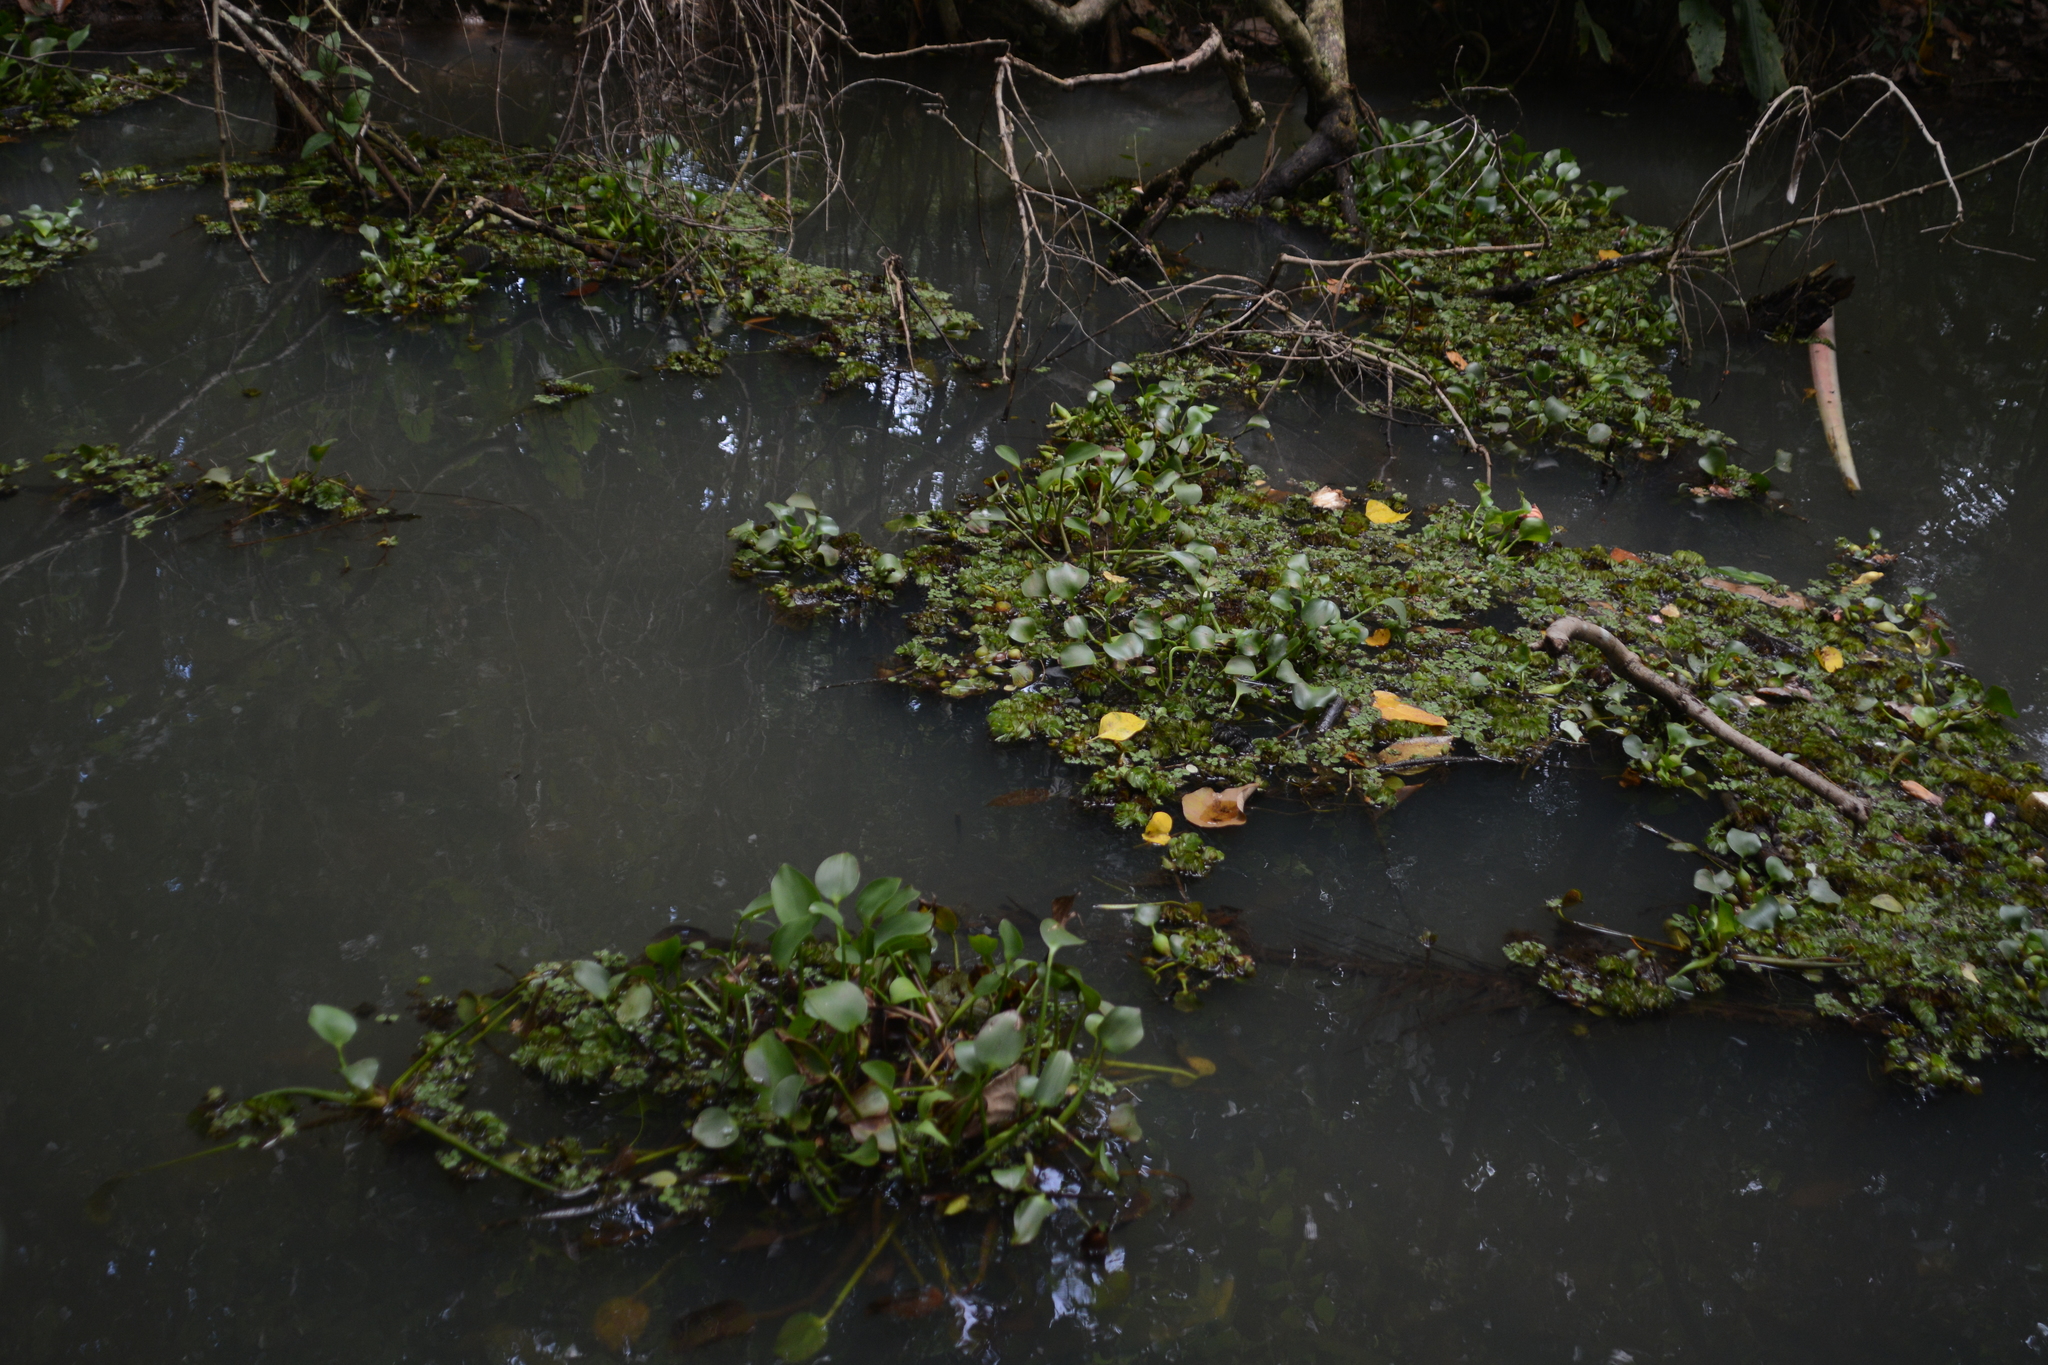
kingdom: Plantae
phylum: Tracheophyta
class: Liliopsida
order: Commelinales
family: Pontederiaceae
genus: Pontederia
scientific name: Pontederia crassipes
